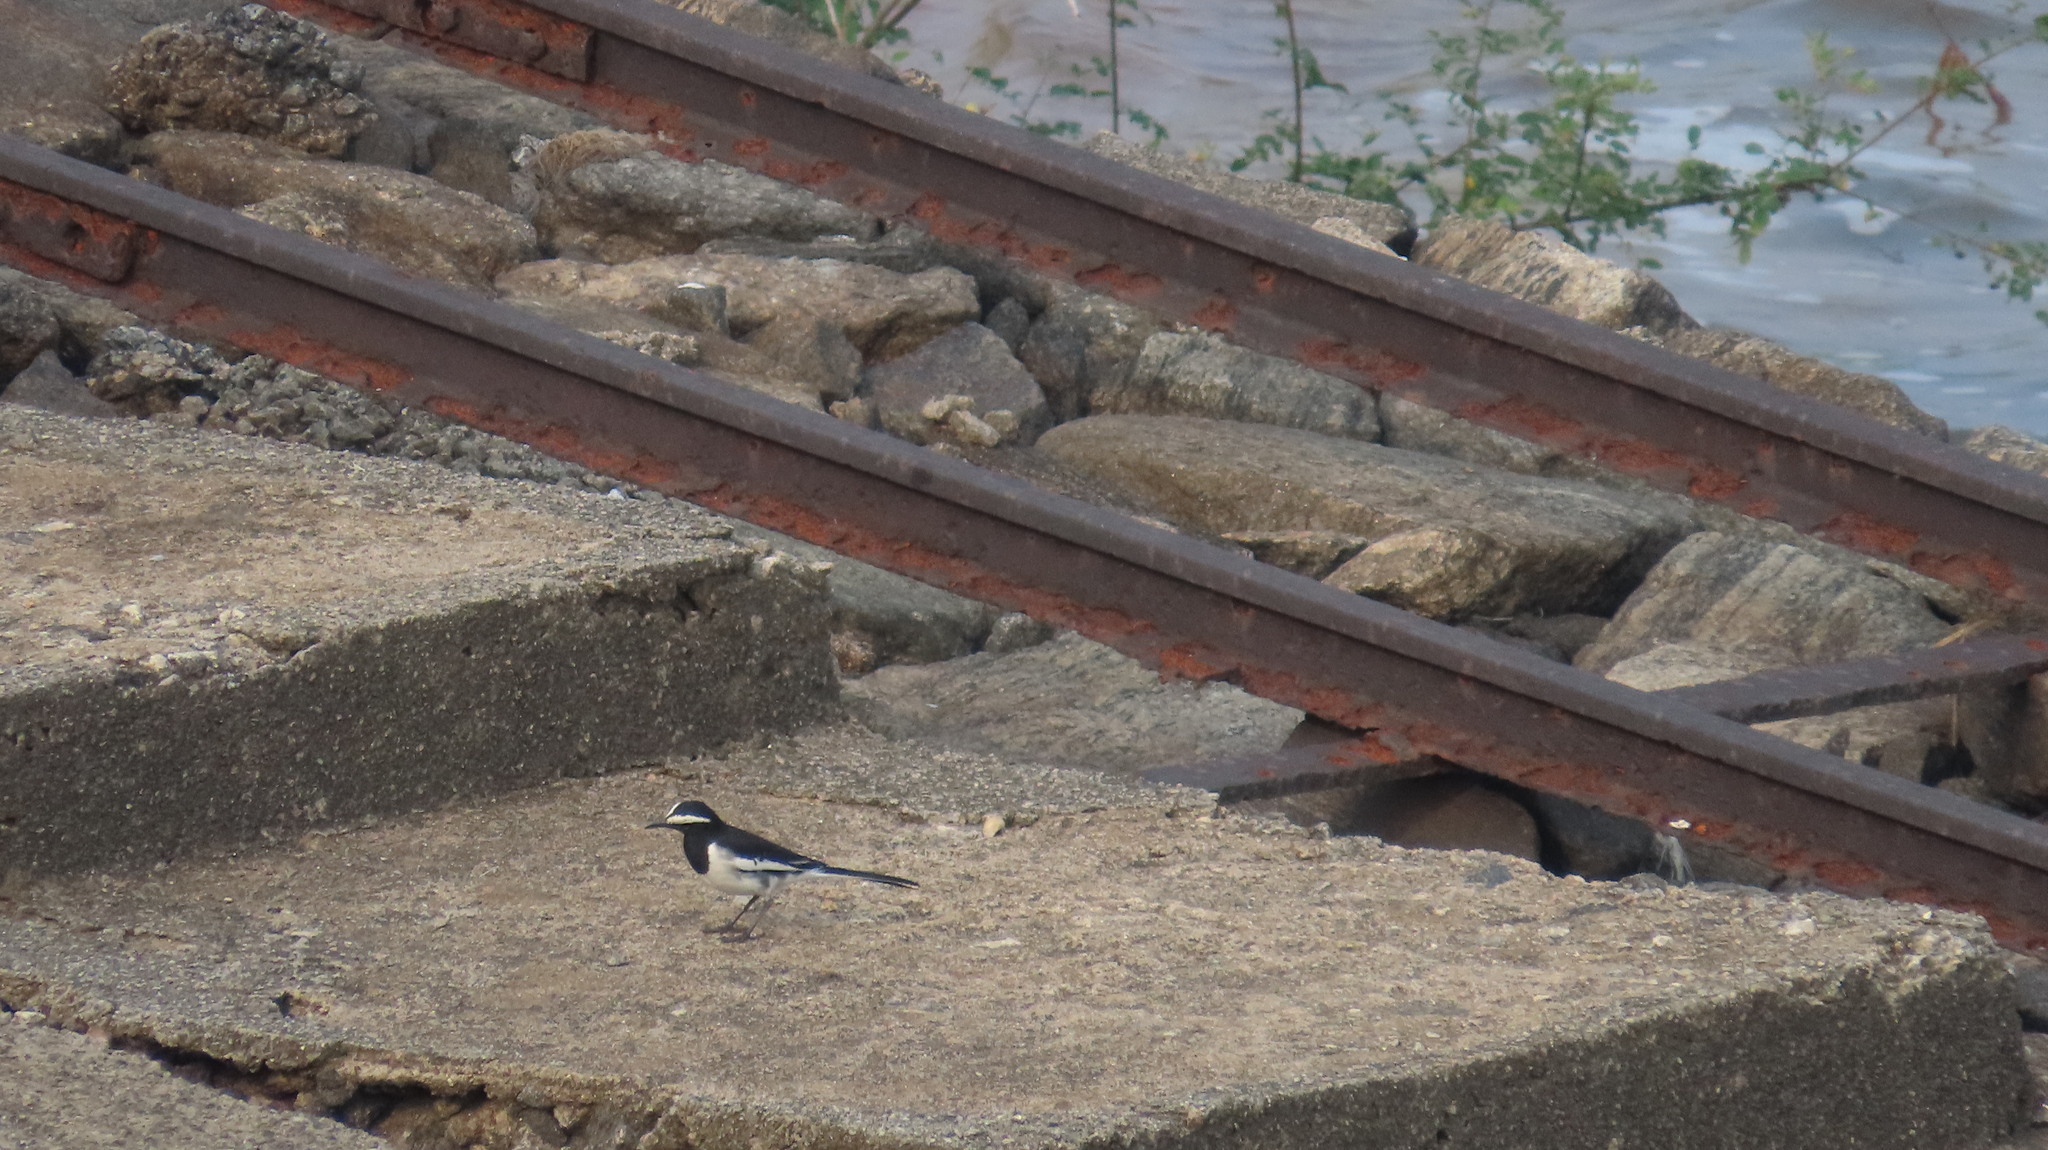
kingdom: Animalia
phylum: Chordata
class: Aves
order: Passeriformes
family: Motacillidae
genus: Motacilla
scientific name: Motacilla maderaspatensis
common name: White-browed wagtail
